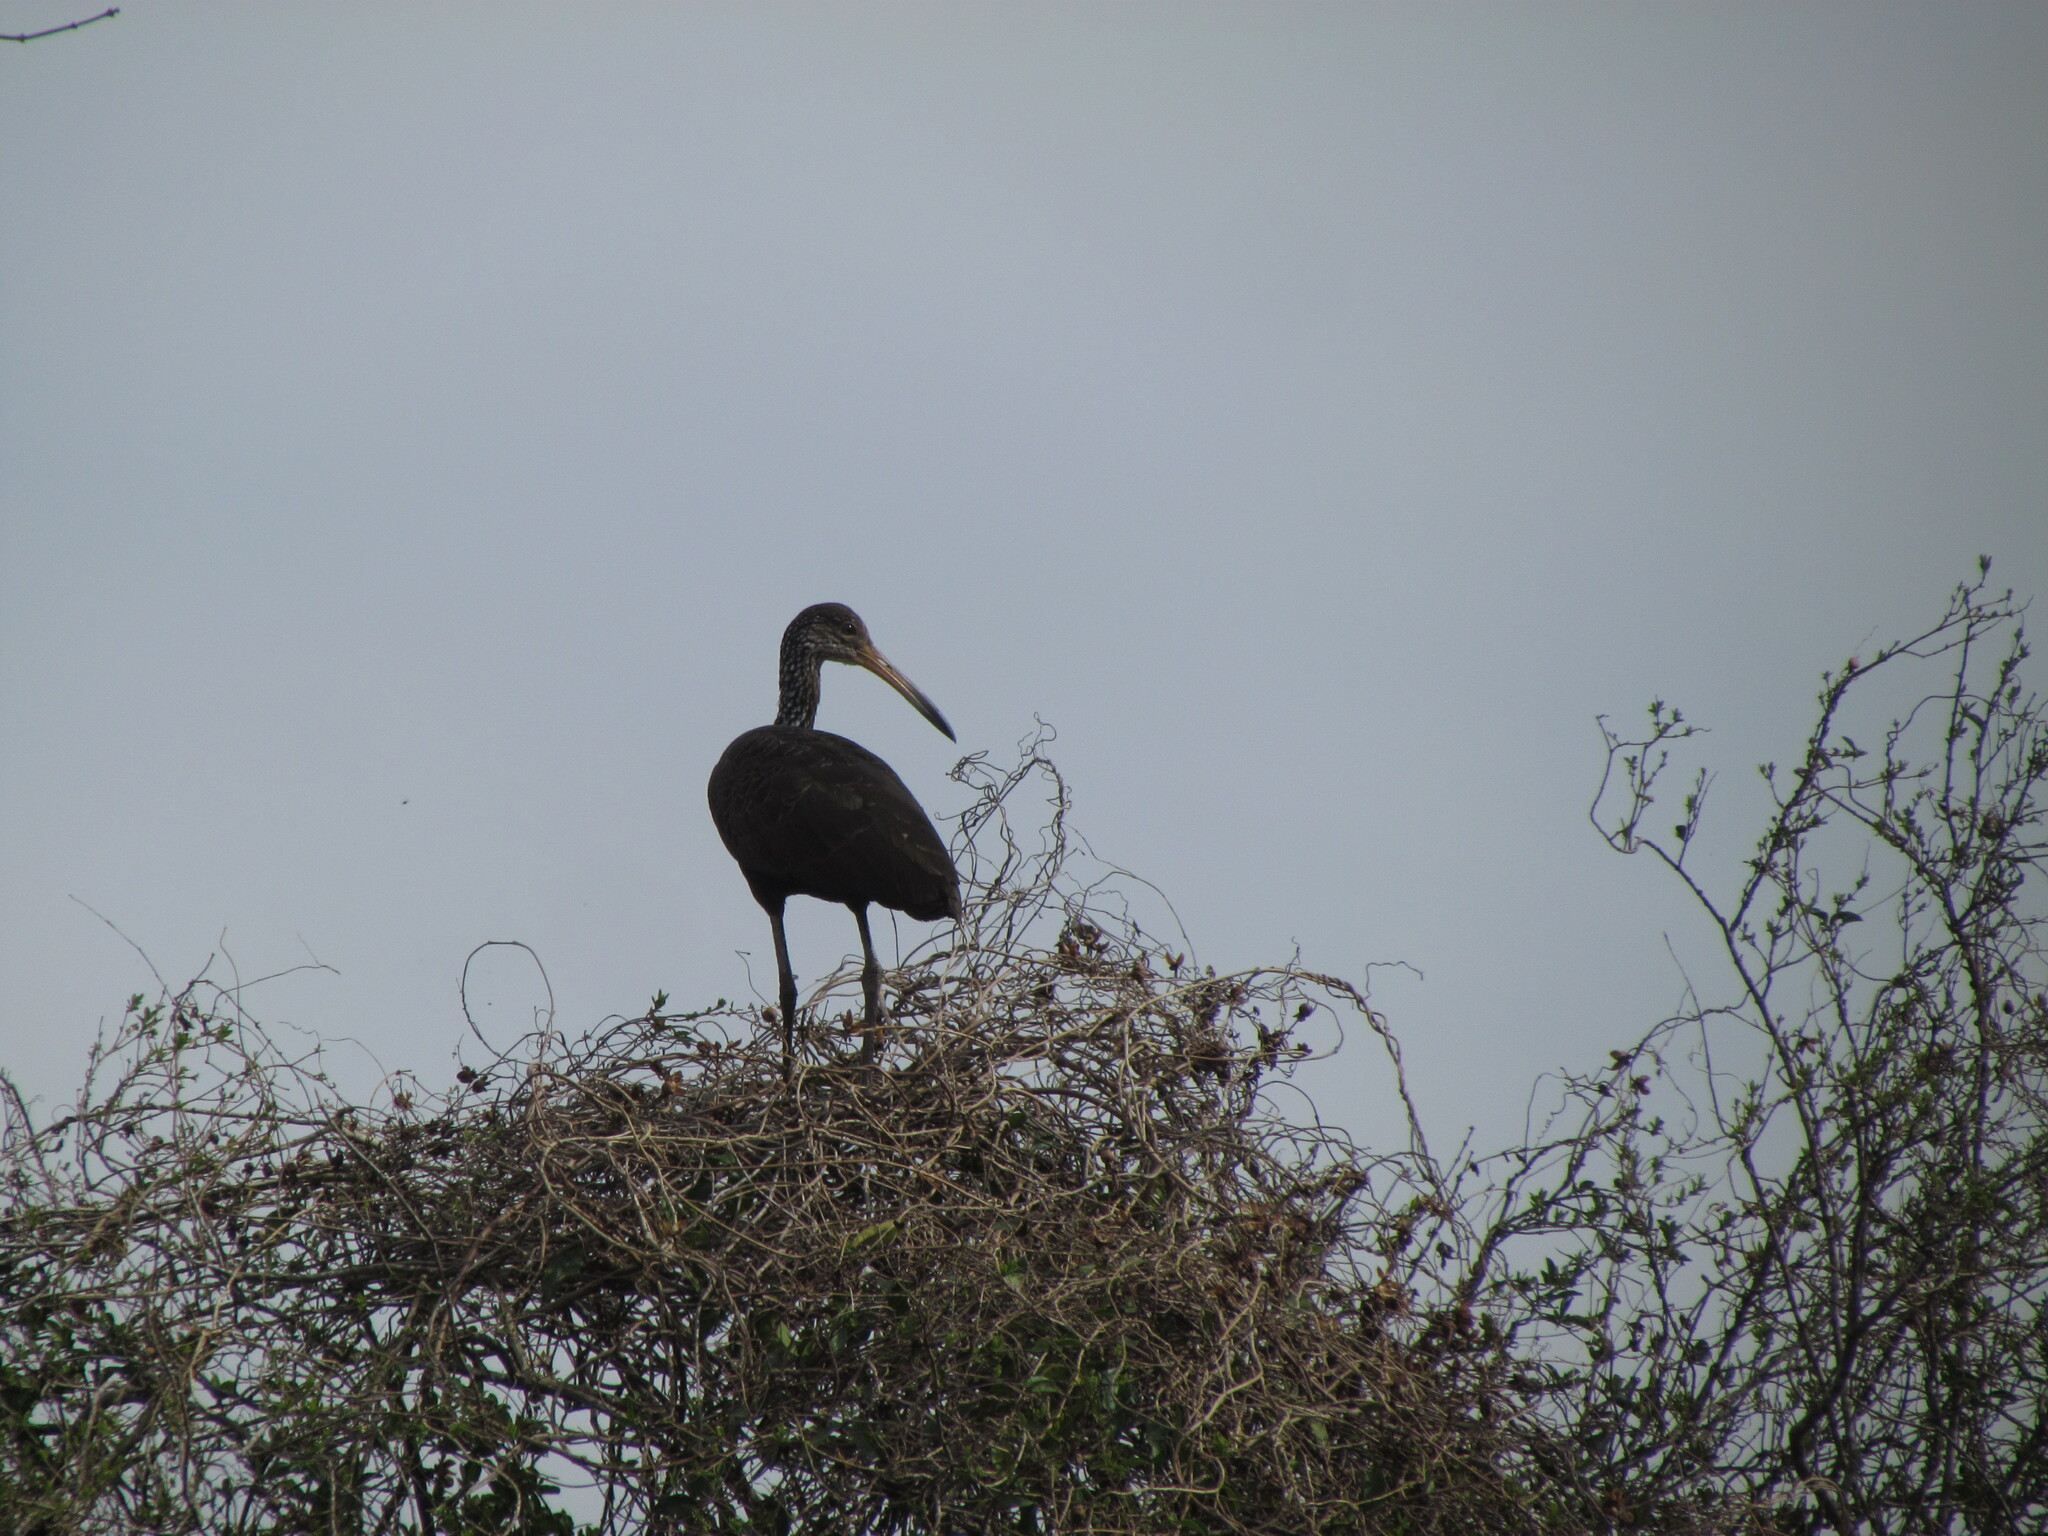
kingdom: Animalia
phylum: Chordata
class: Aves
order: Gruiformes
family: Aramidae
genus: Aramus
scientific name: Aramus guarauna
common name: Limpkin
